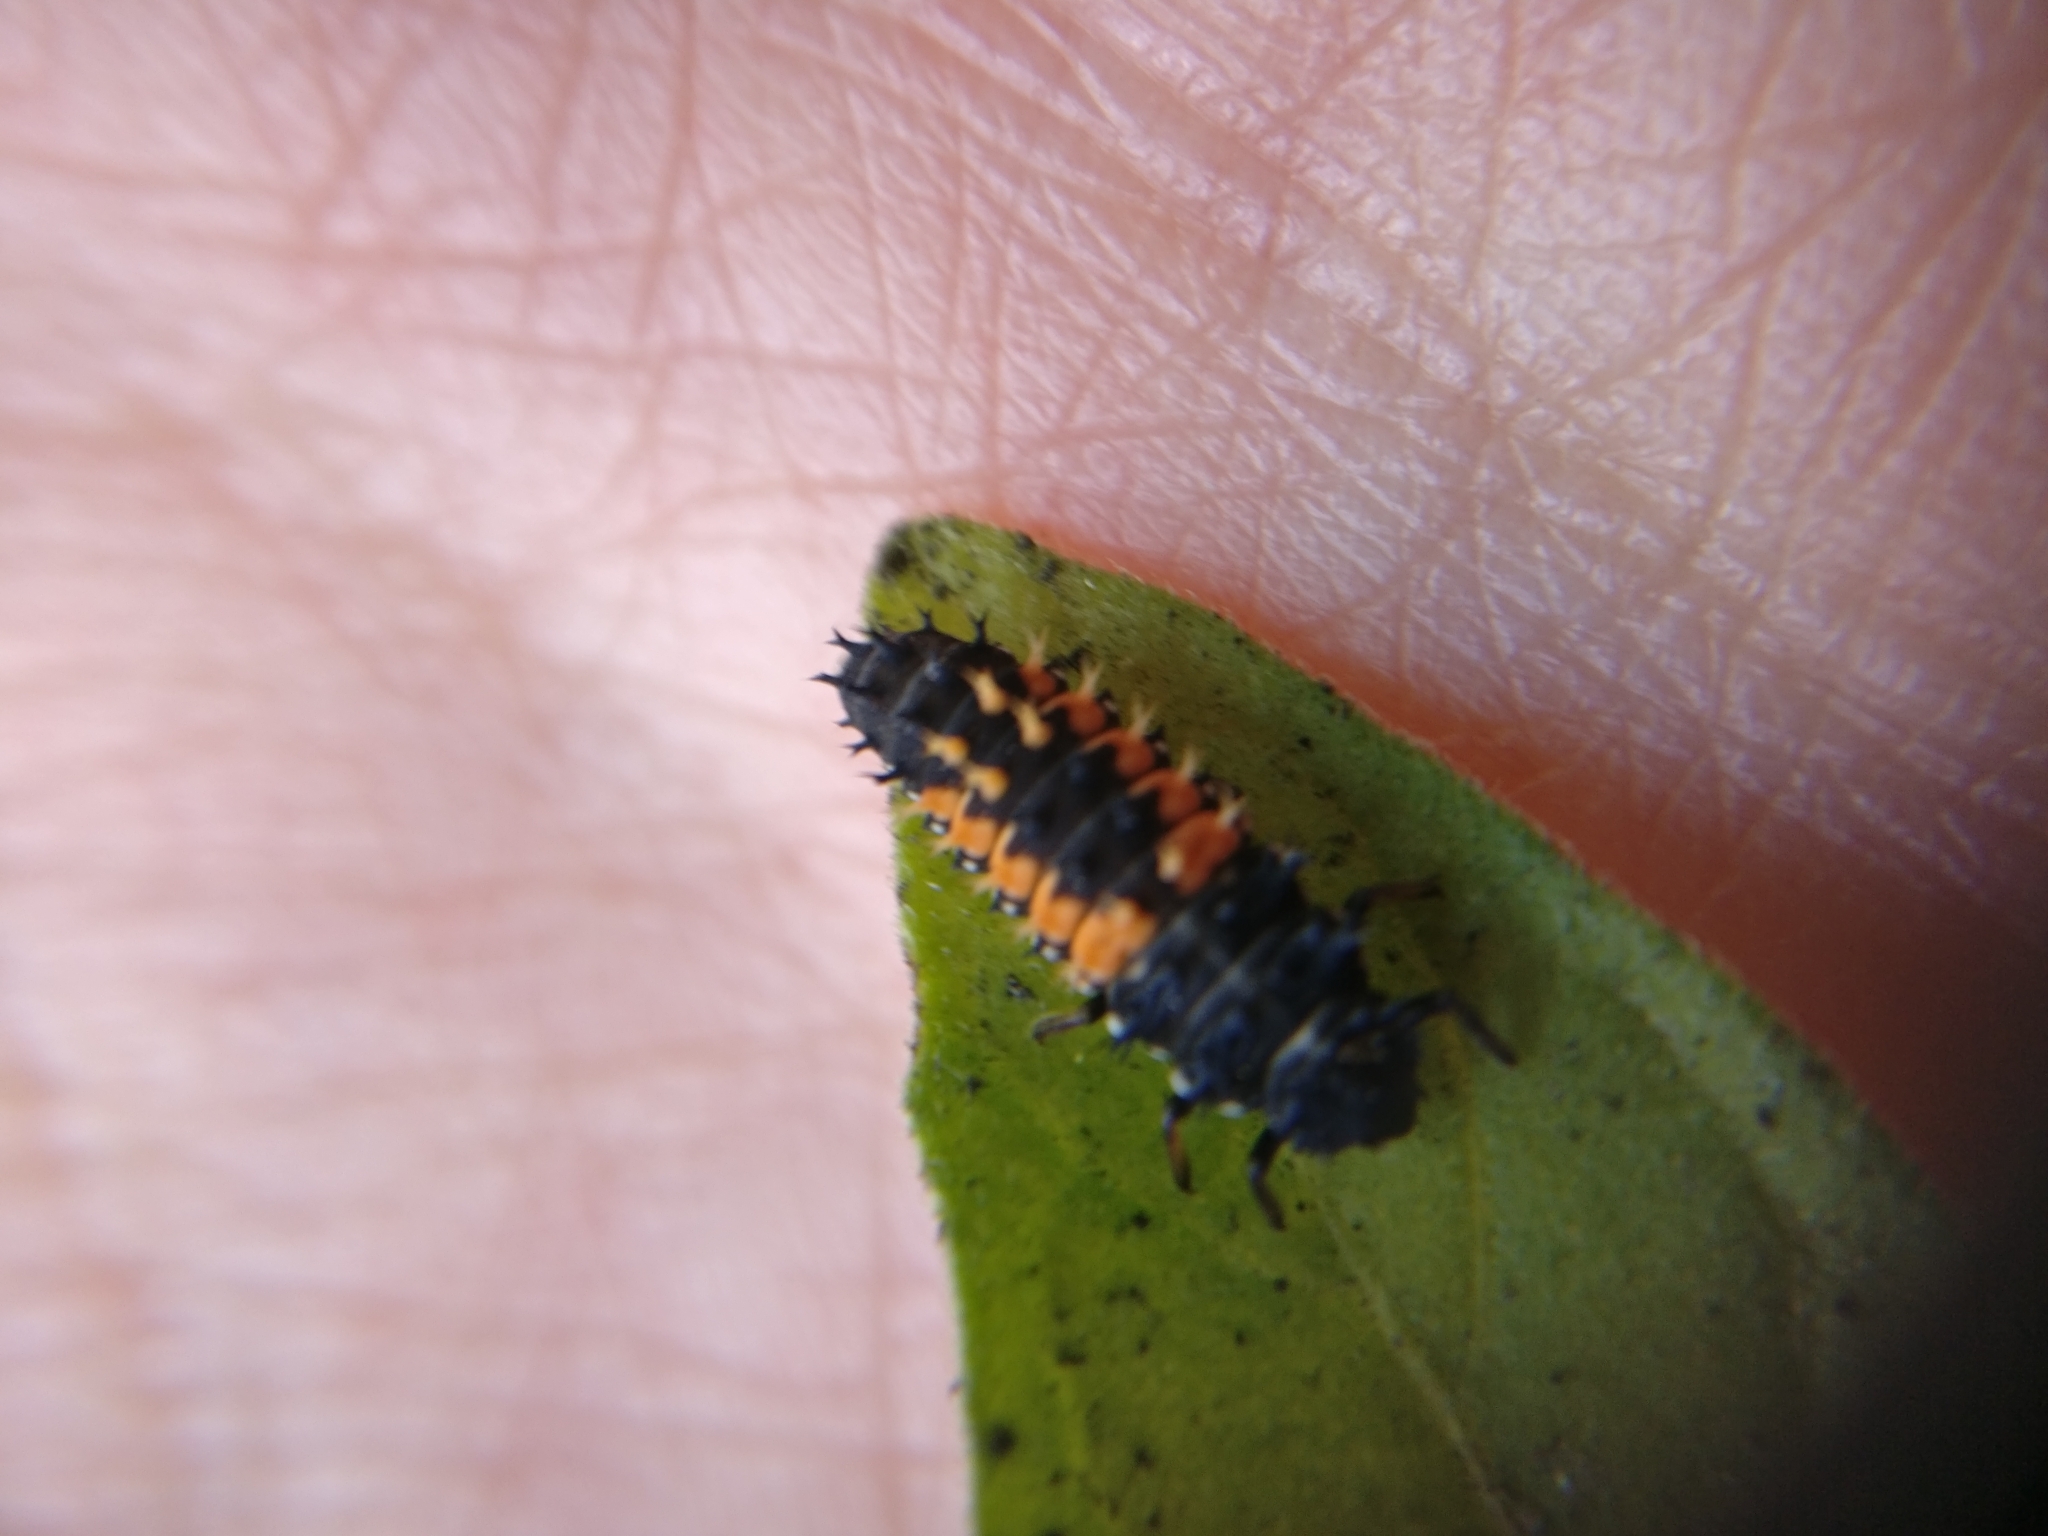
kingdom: Animalia
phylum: Arthropoda
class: Insecta
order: Coleoptera
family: Coccinellidae
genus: Harmonia
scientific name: Harmonia axyridis
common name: Harlequin ladybird
